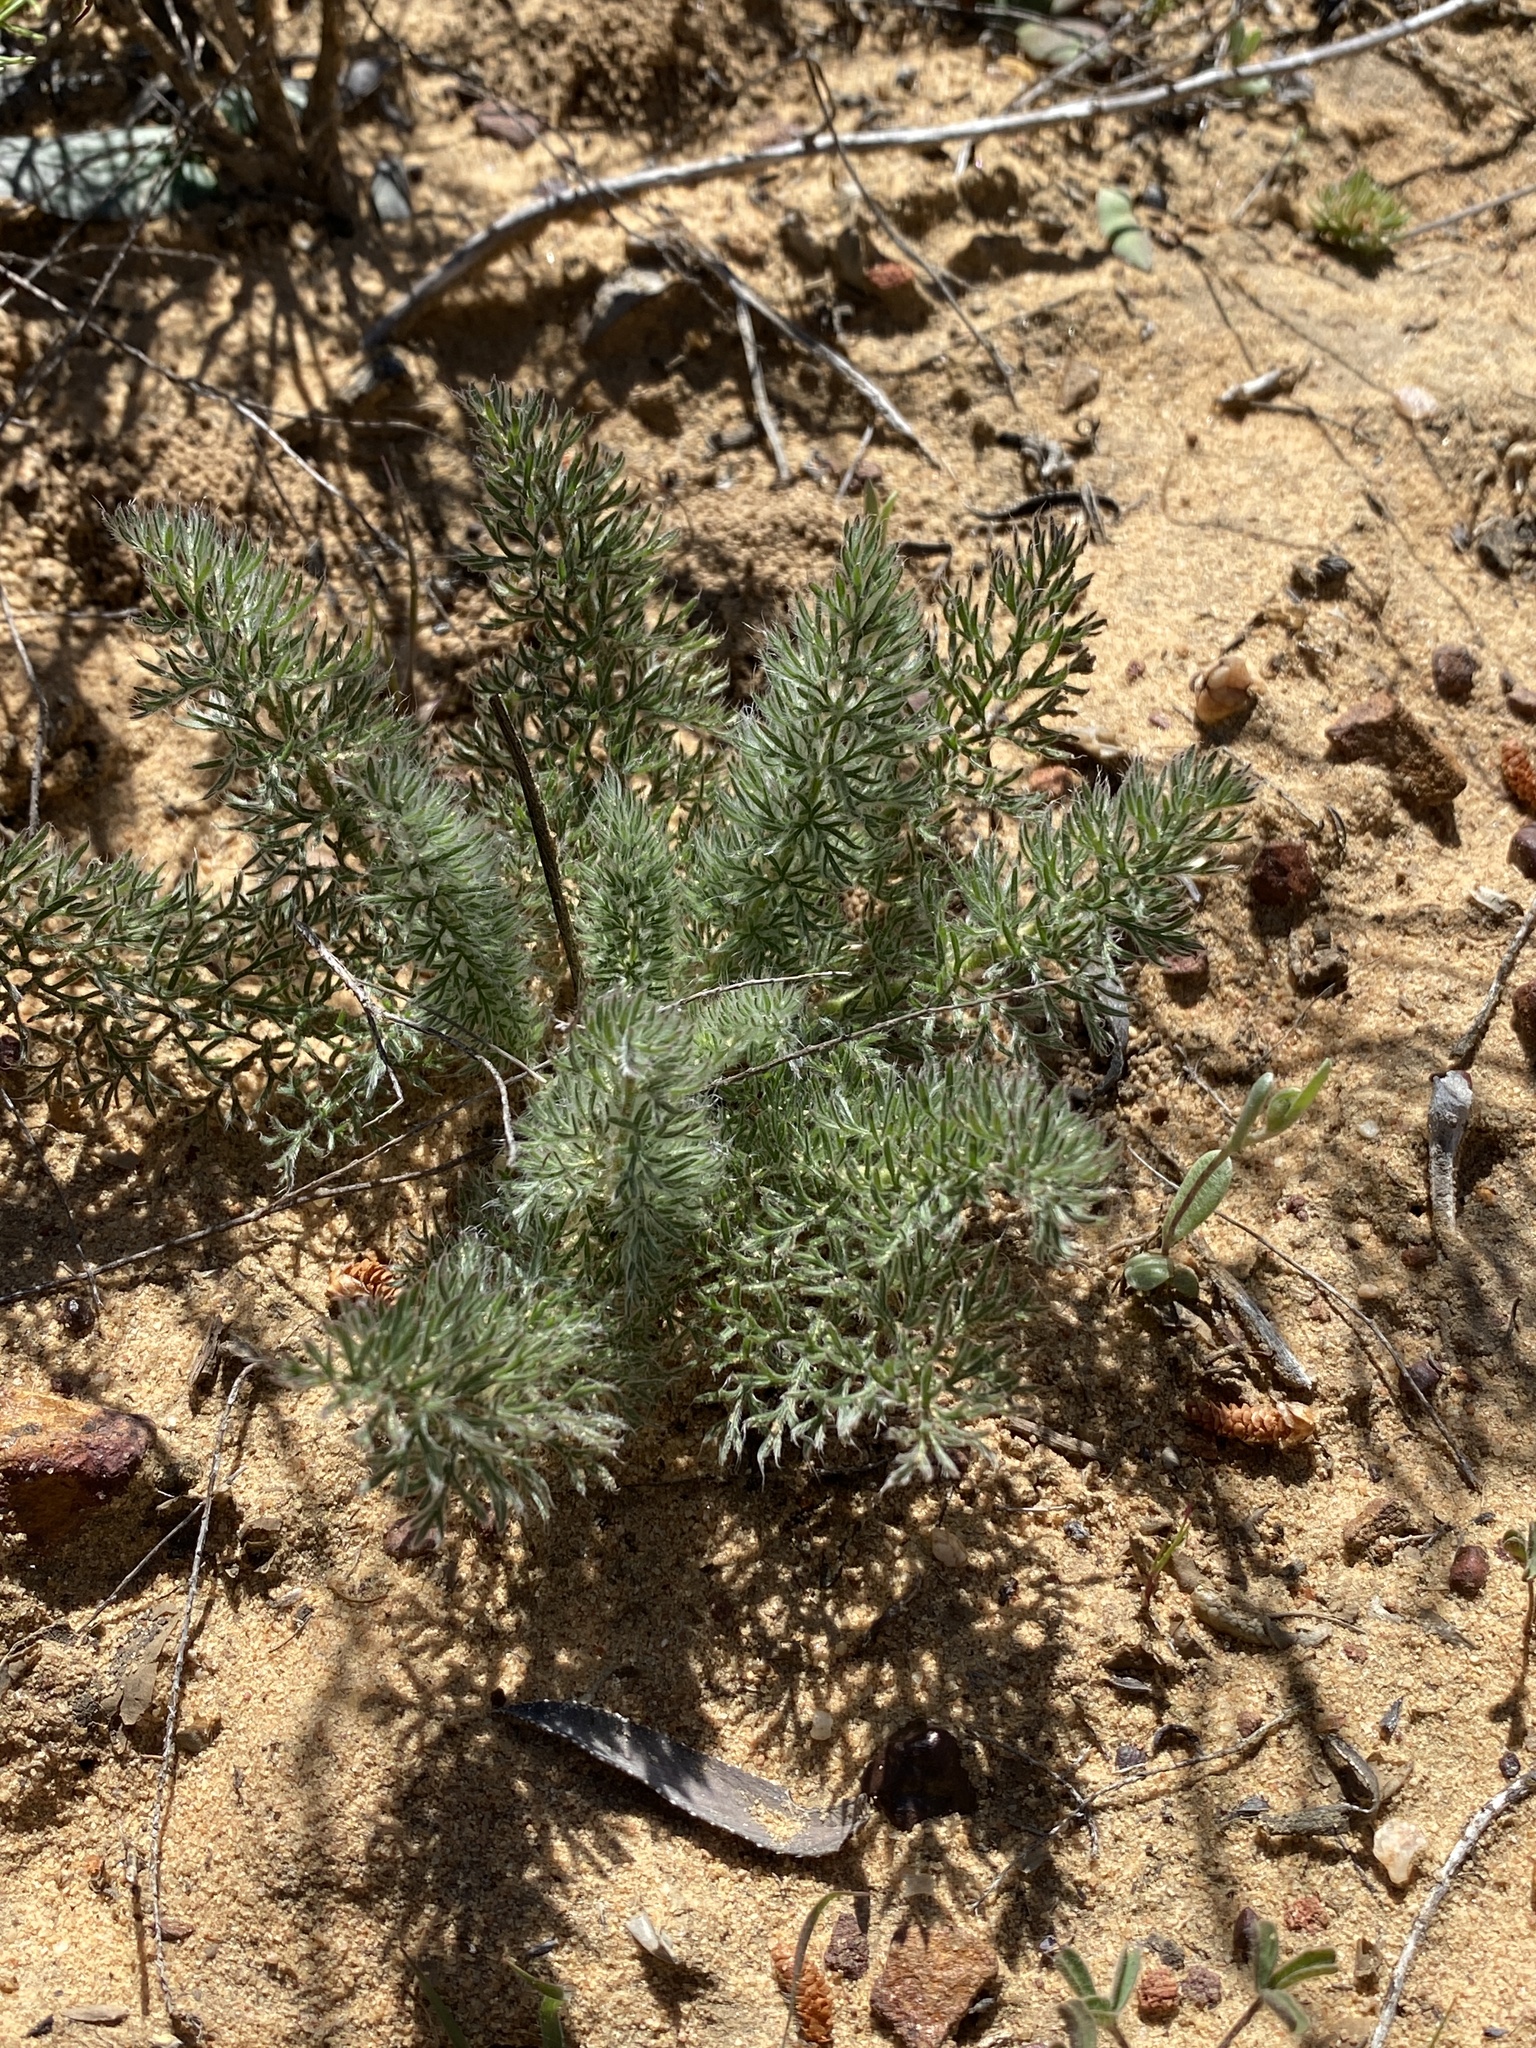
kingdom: Plantae
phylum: Tracheophyta
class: Liliopsida
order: Asparagales
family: Asparagaceae
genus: Eriospermum
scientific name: Eriospermum paradoxum
